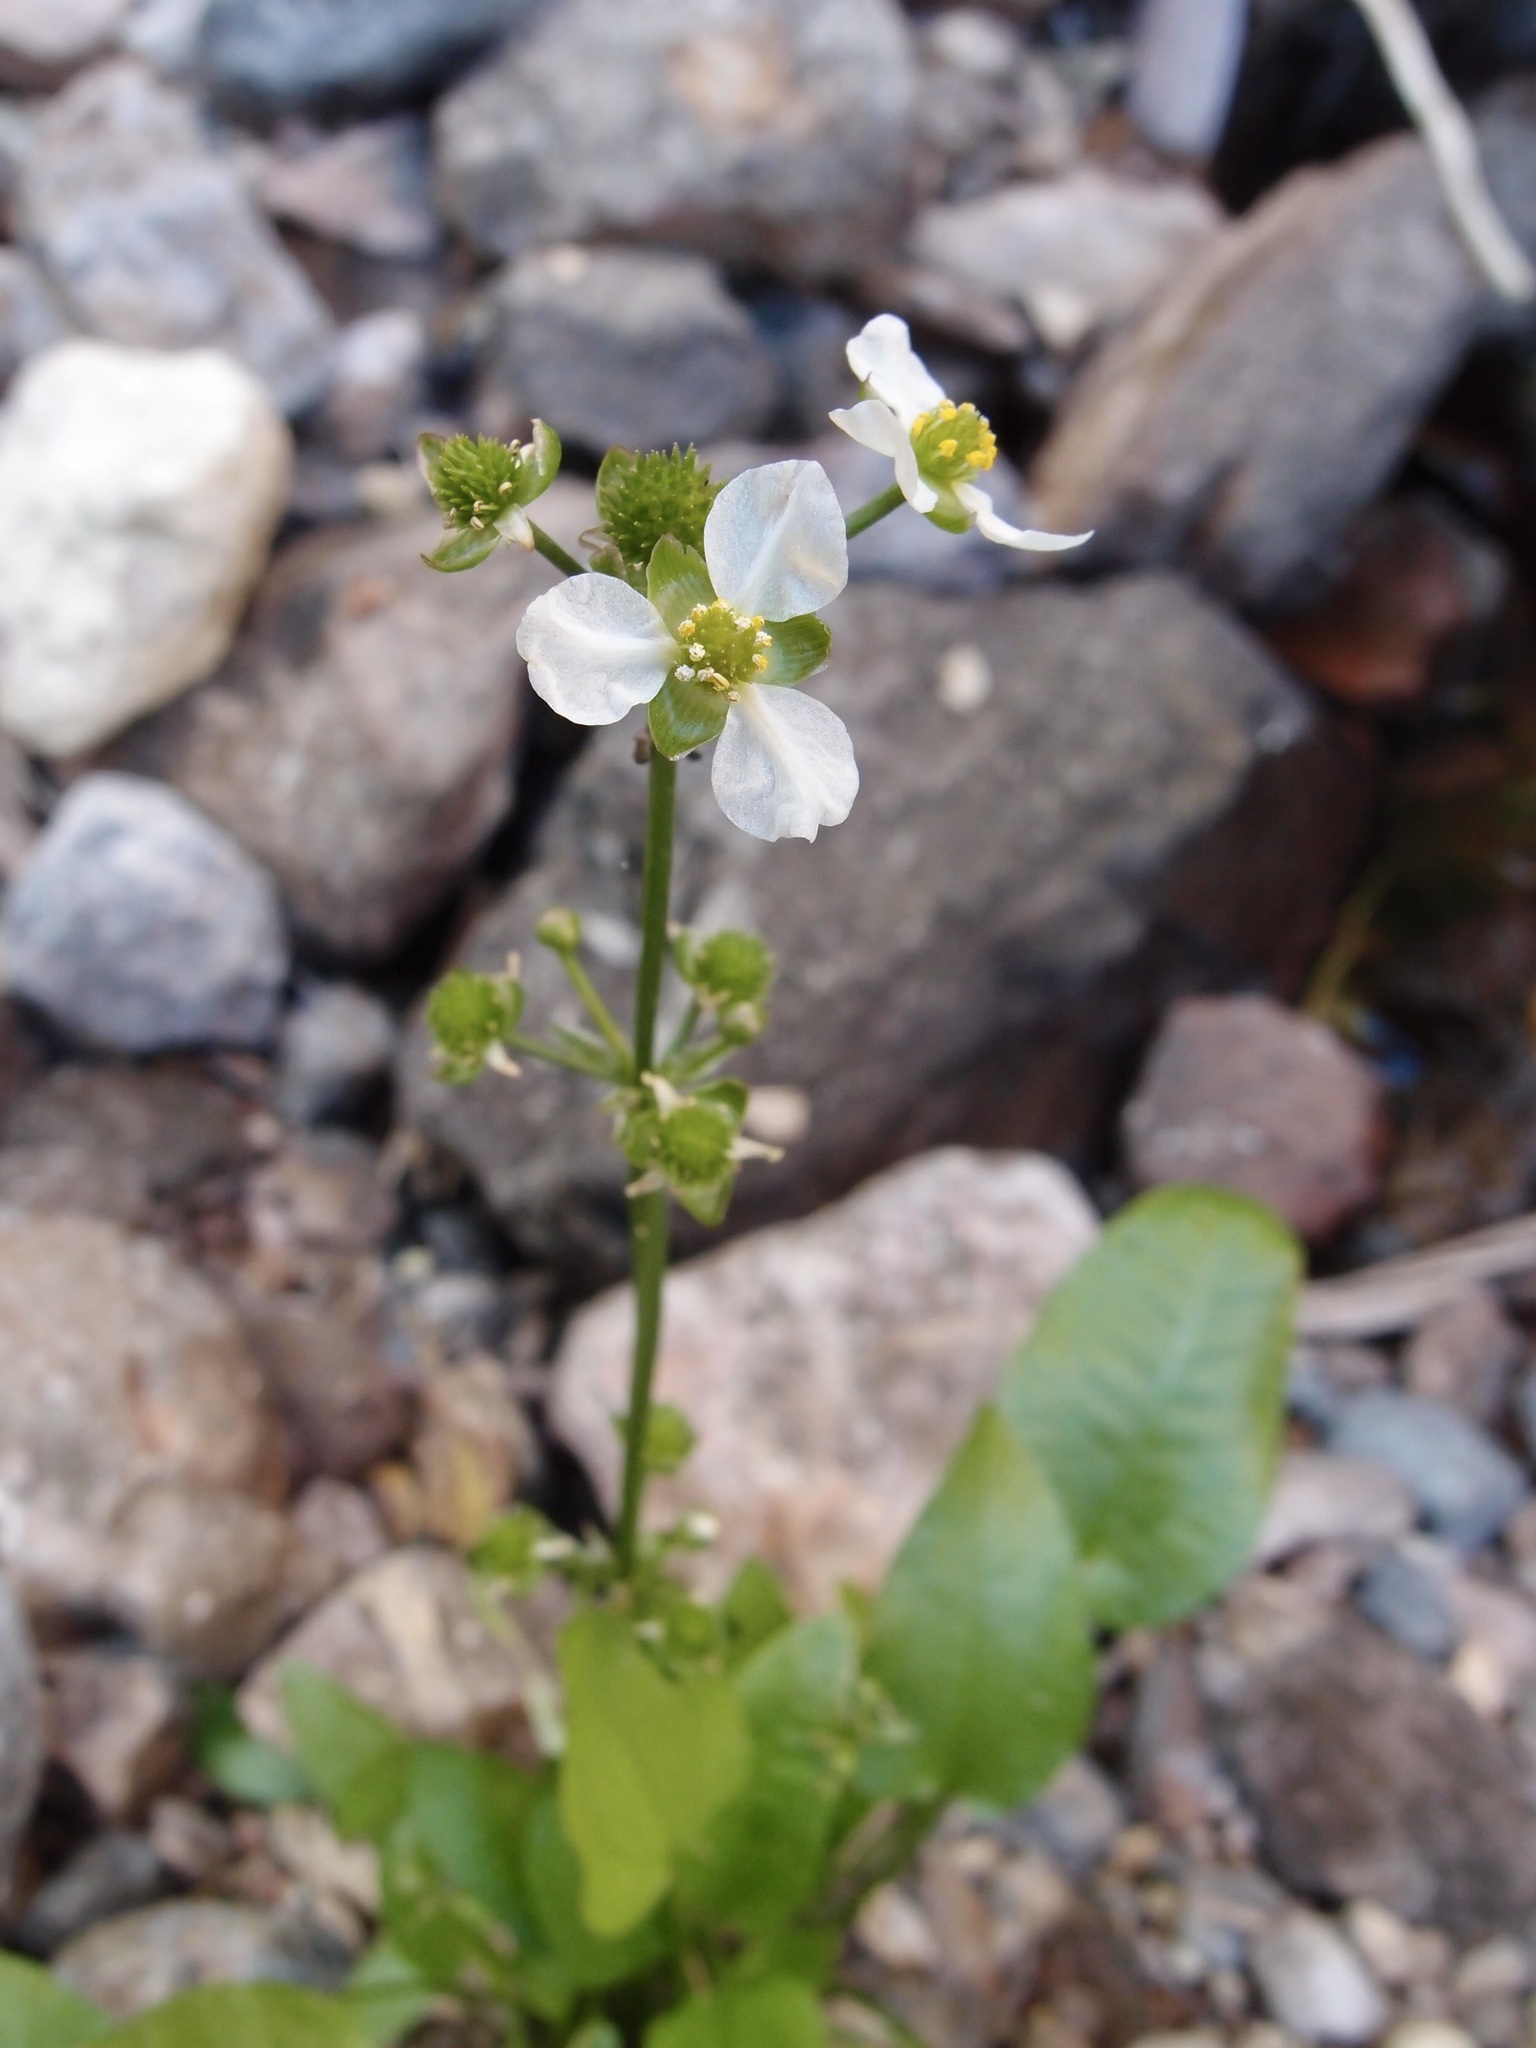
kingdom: Plantae
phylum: Tracheophyta
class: Liliopsida
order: Alismatales
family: Alismataceae
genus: Echinodorus
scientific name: Echinodorus berteroi
